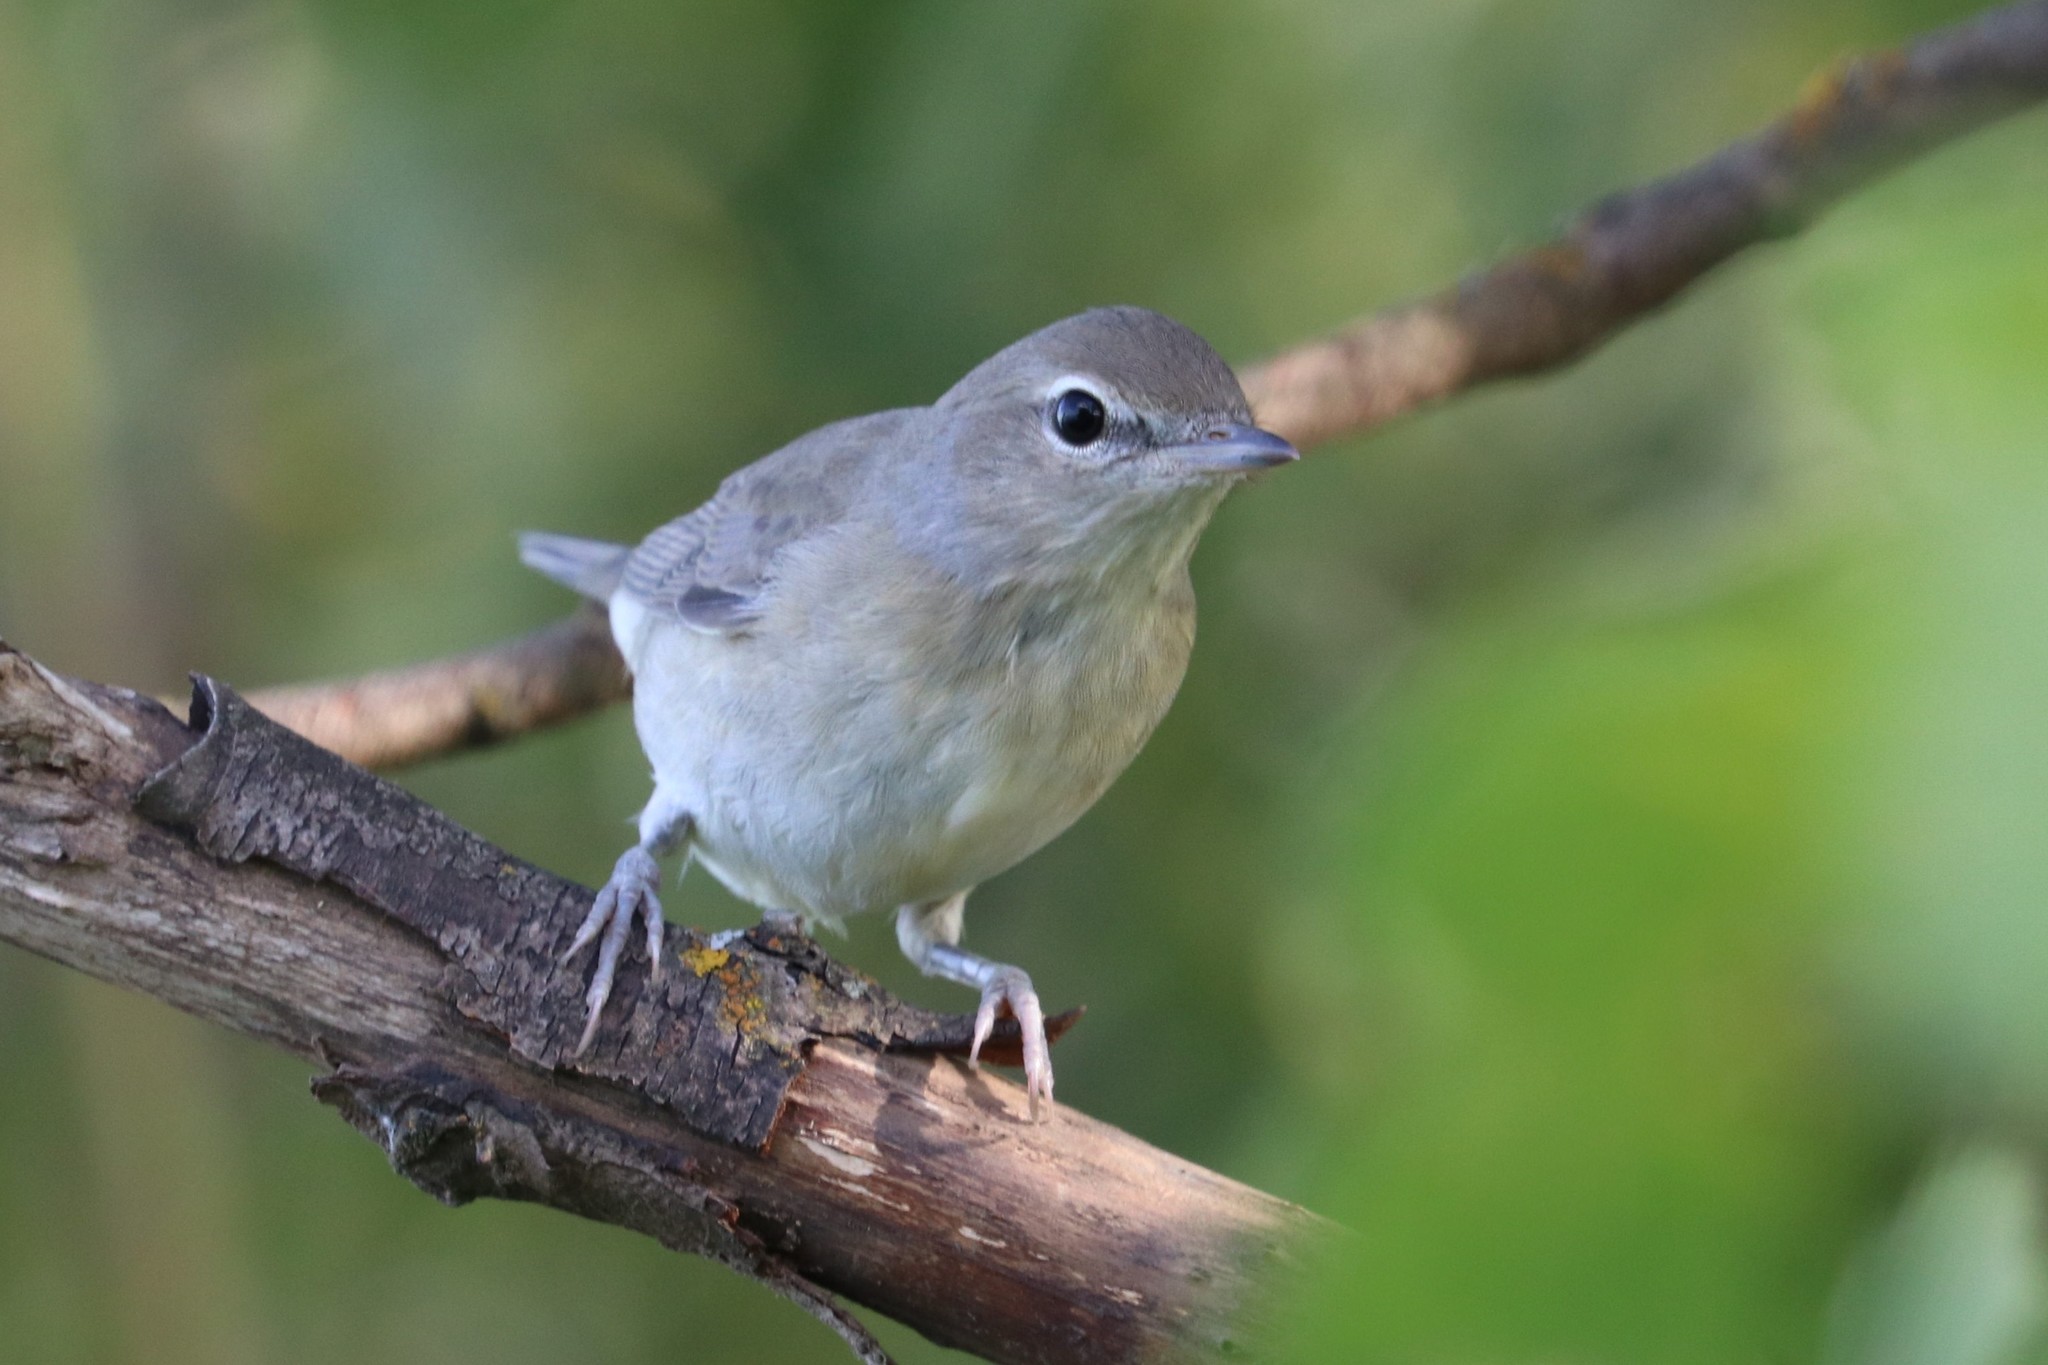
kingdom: Animalia
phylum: Chordata
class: Aves
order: Passeriformes
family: Sylviidae
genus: Sylvia
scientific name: Sylvia borin
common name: Garden warbler
